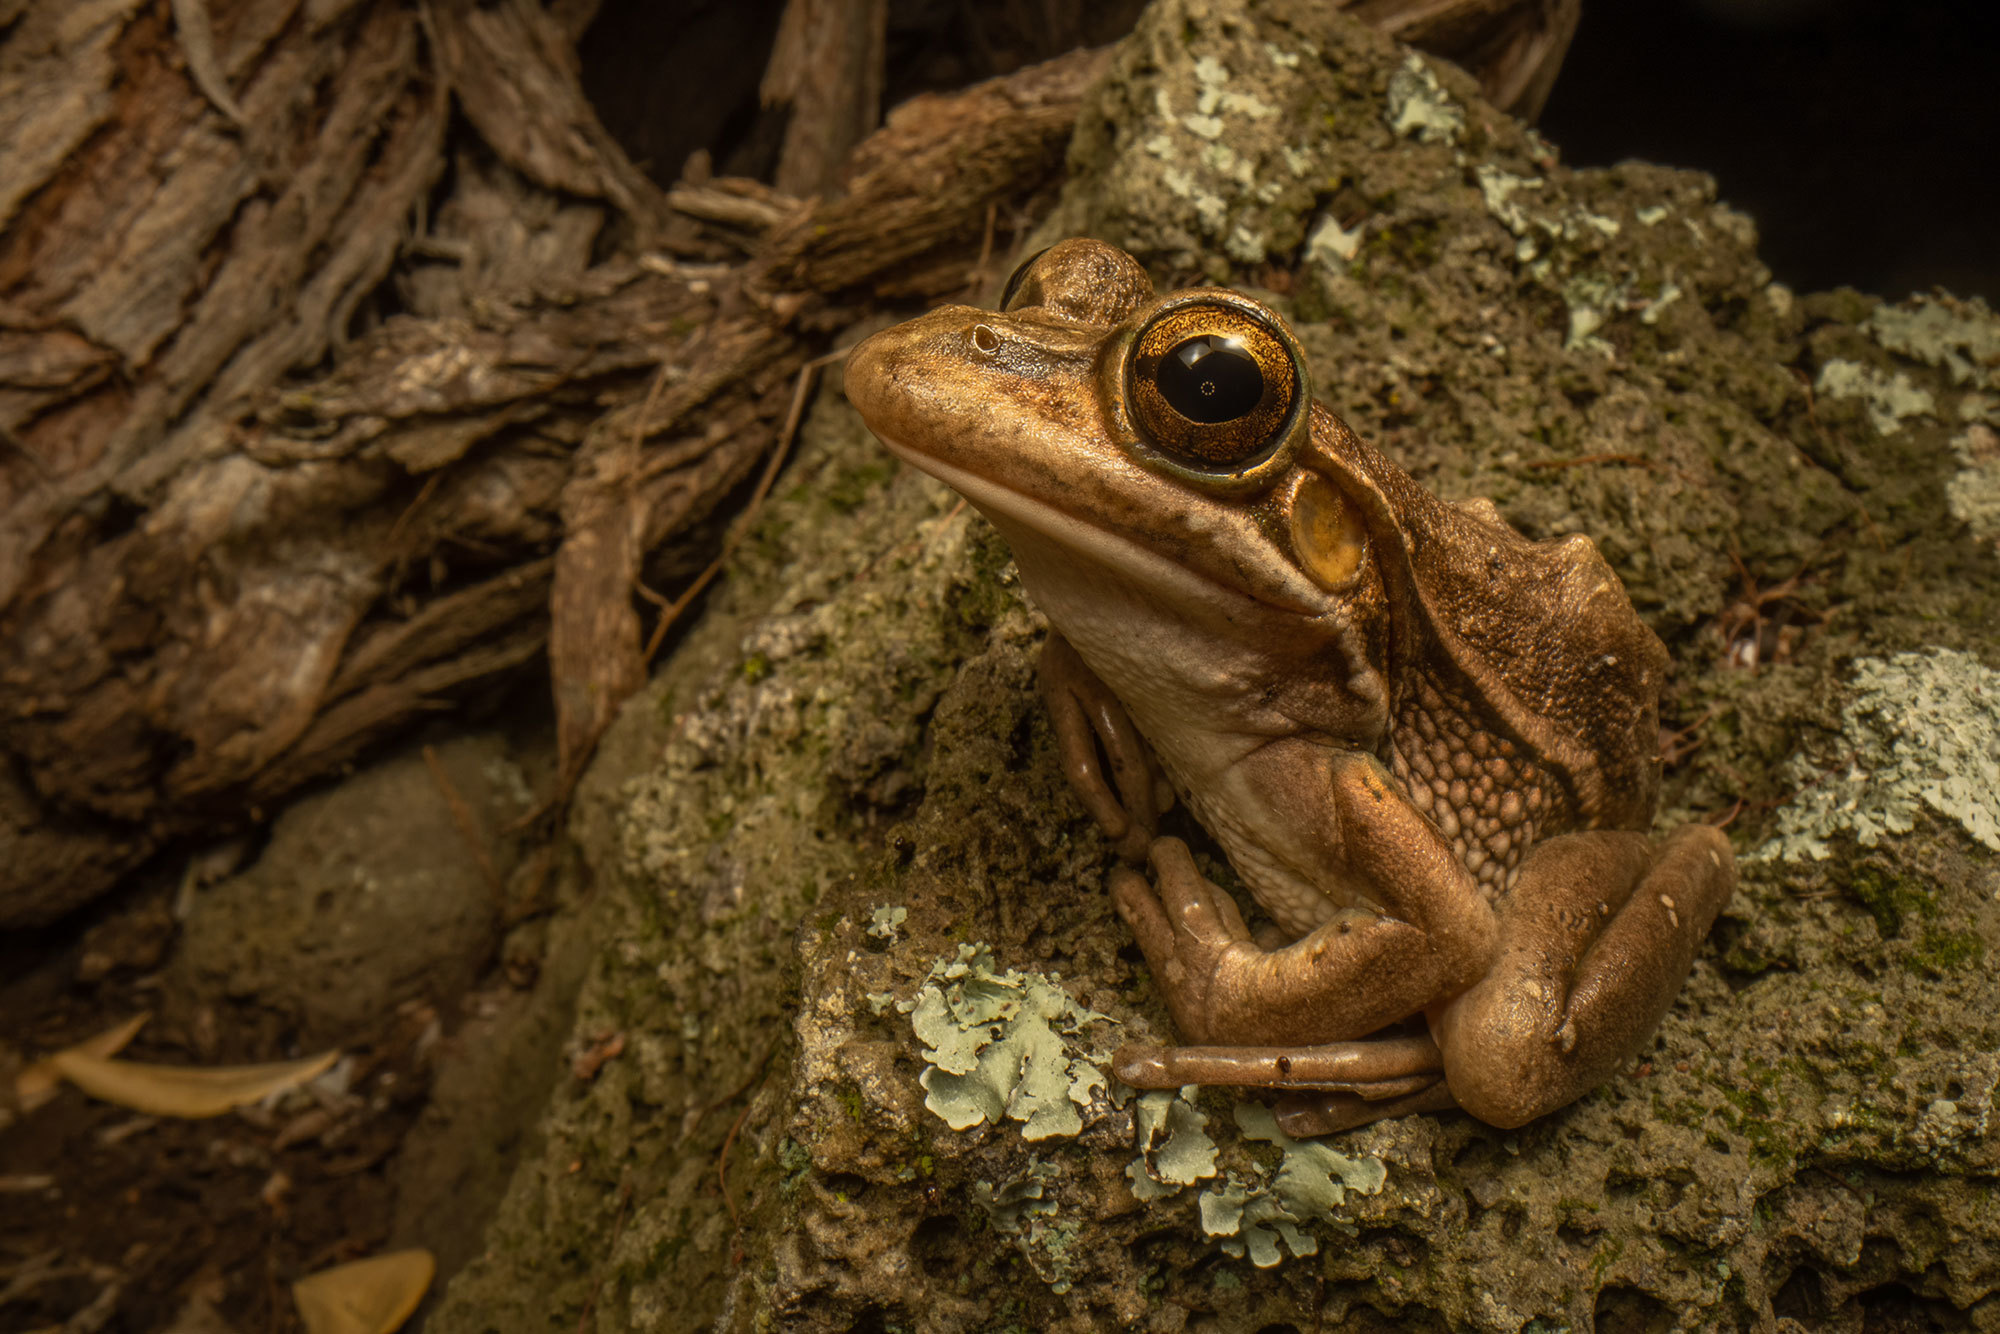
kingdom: Animalia
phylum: Chordata
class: Amphibia
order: Anura
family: Pelodryadidae
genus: Ranoidea
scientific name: Ranoidea aurea
